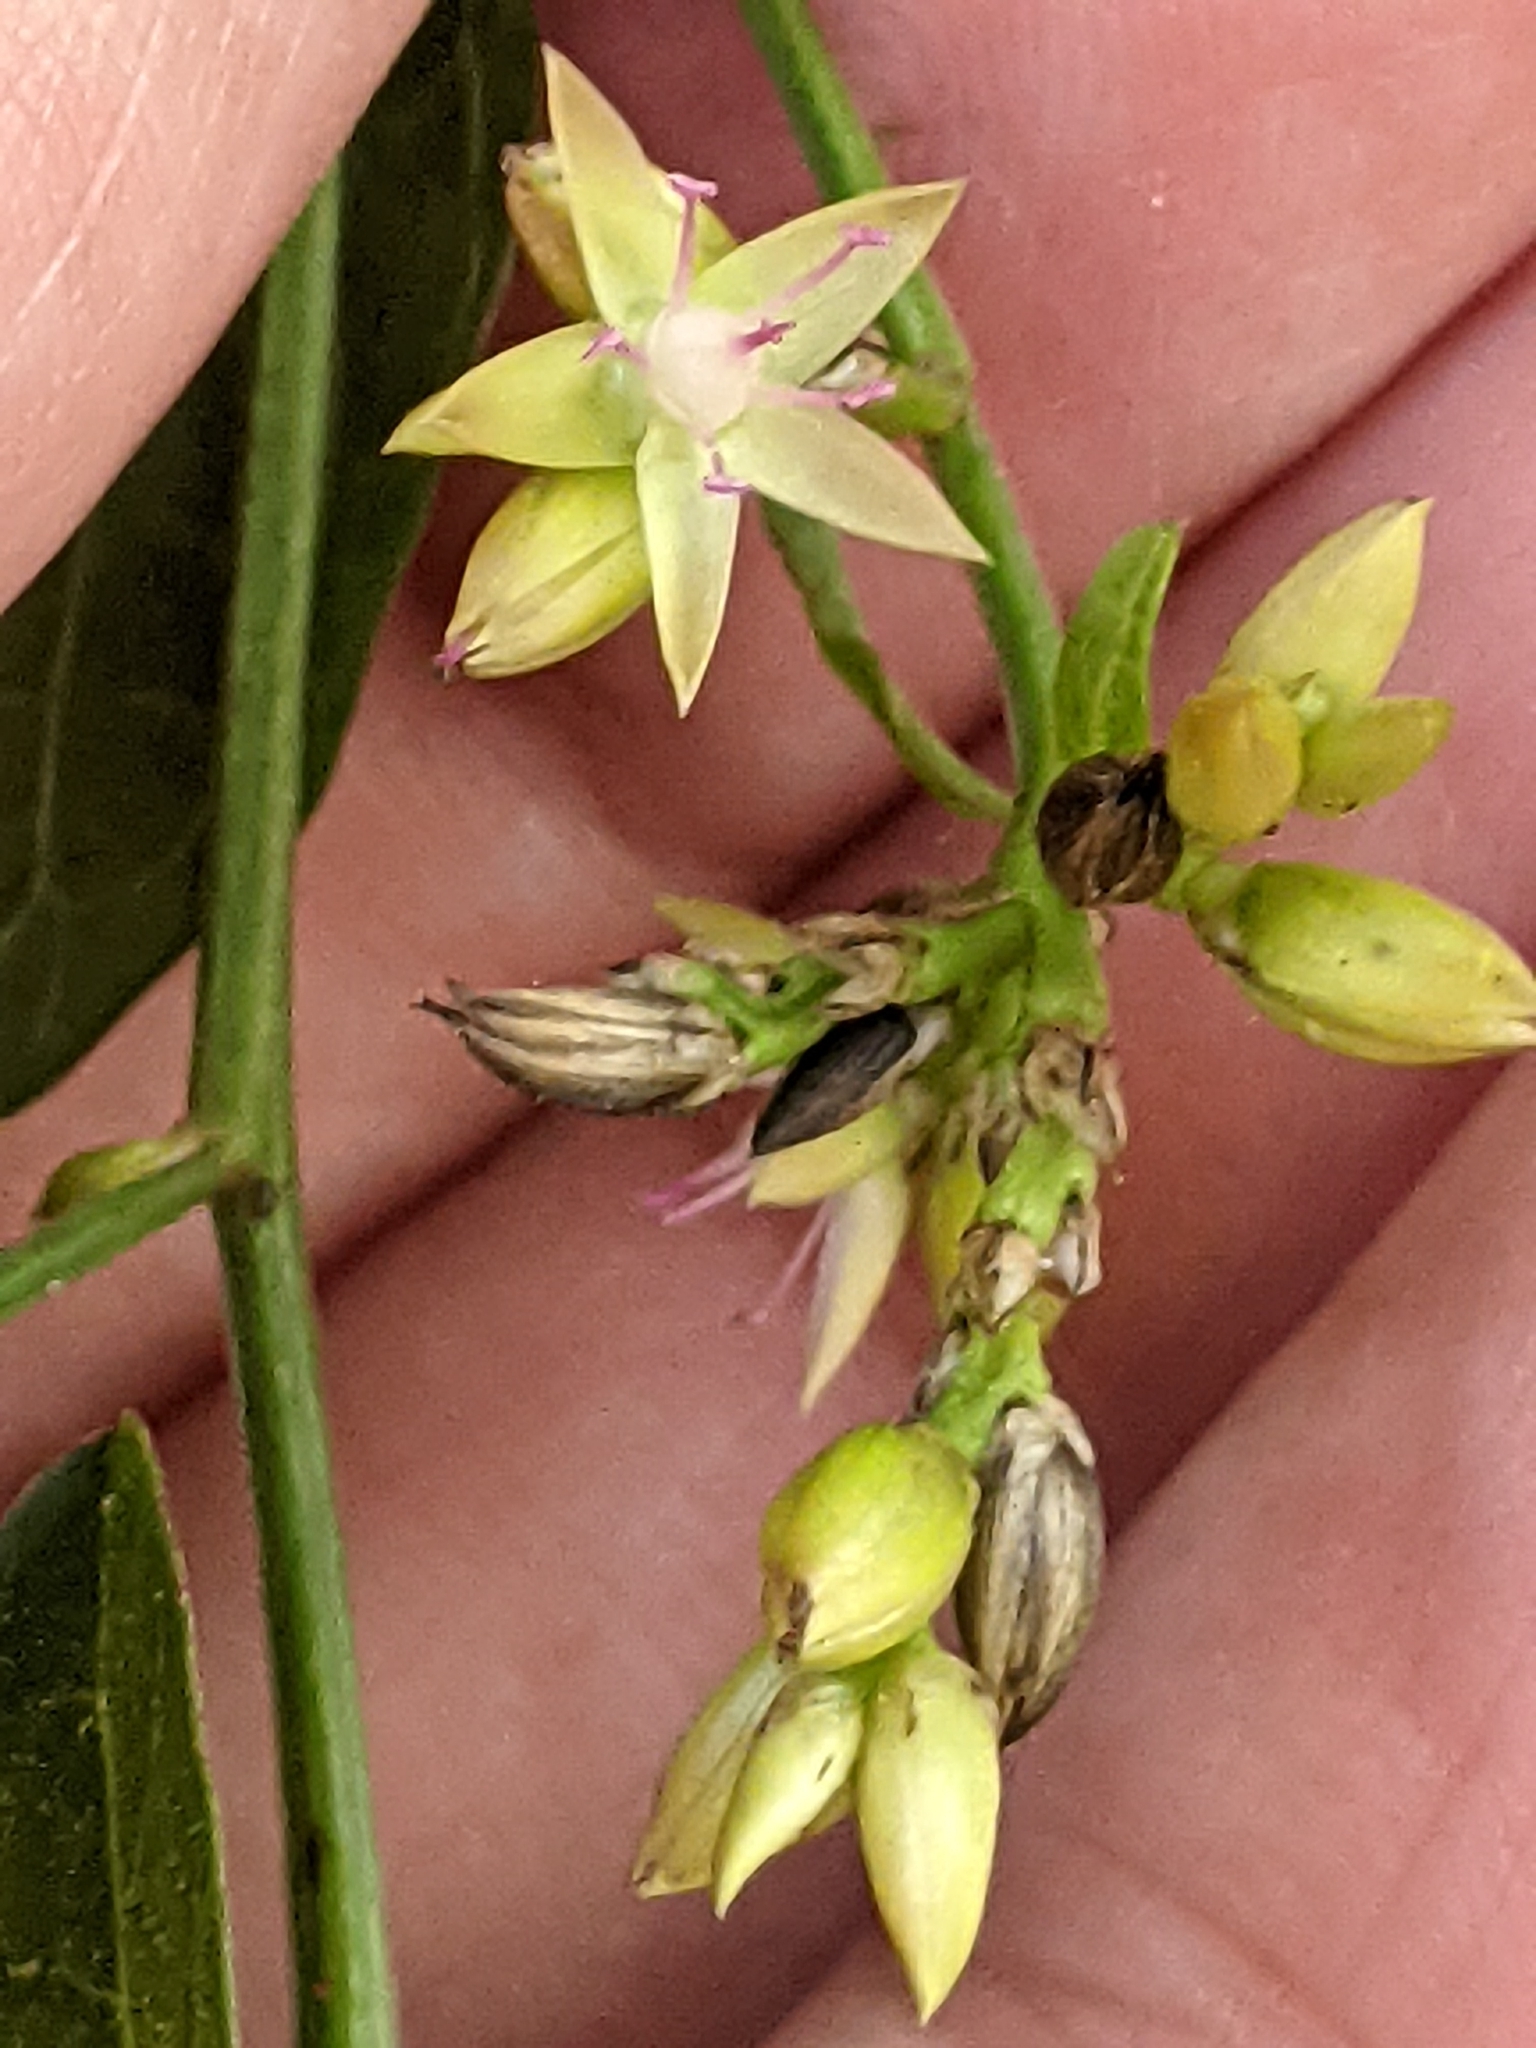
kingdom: Plantae
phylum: Tracheophyta
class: Magnoliopsida
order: Caryophyllales
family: Amaranthaceae
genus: Celosia
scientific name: Celosia nitida
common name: West indian cock's comb
